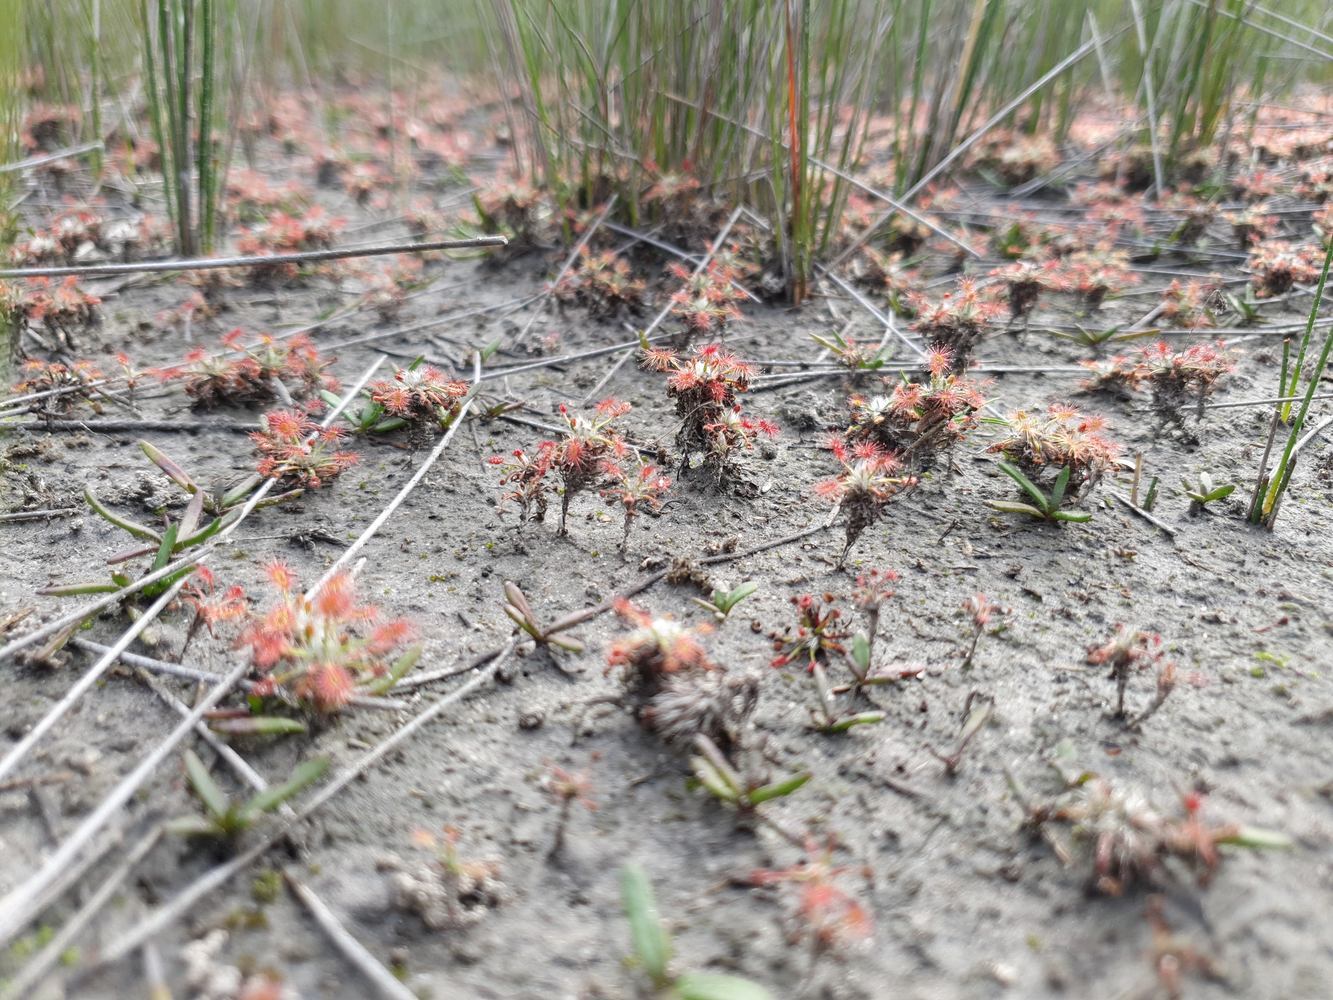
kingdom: Plantae
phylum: Tracheophyta
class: Magnoliopsida
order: Caryophyllales
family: Droseraceae
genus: Drosera
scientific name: Drosera verrucata
